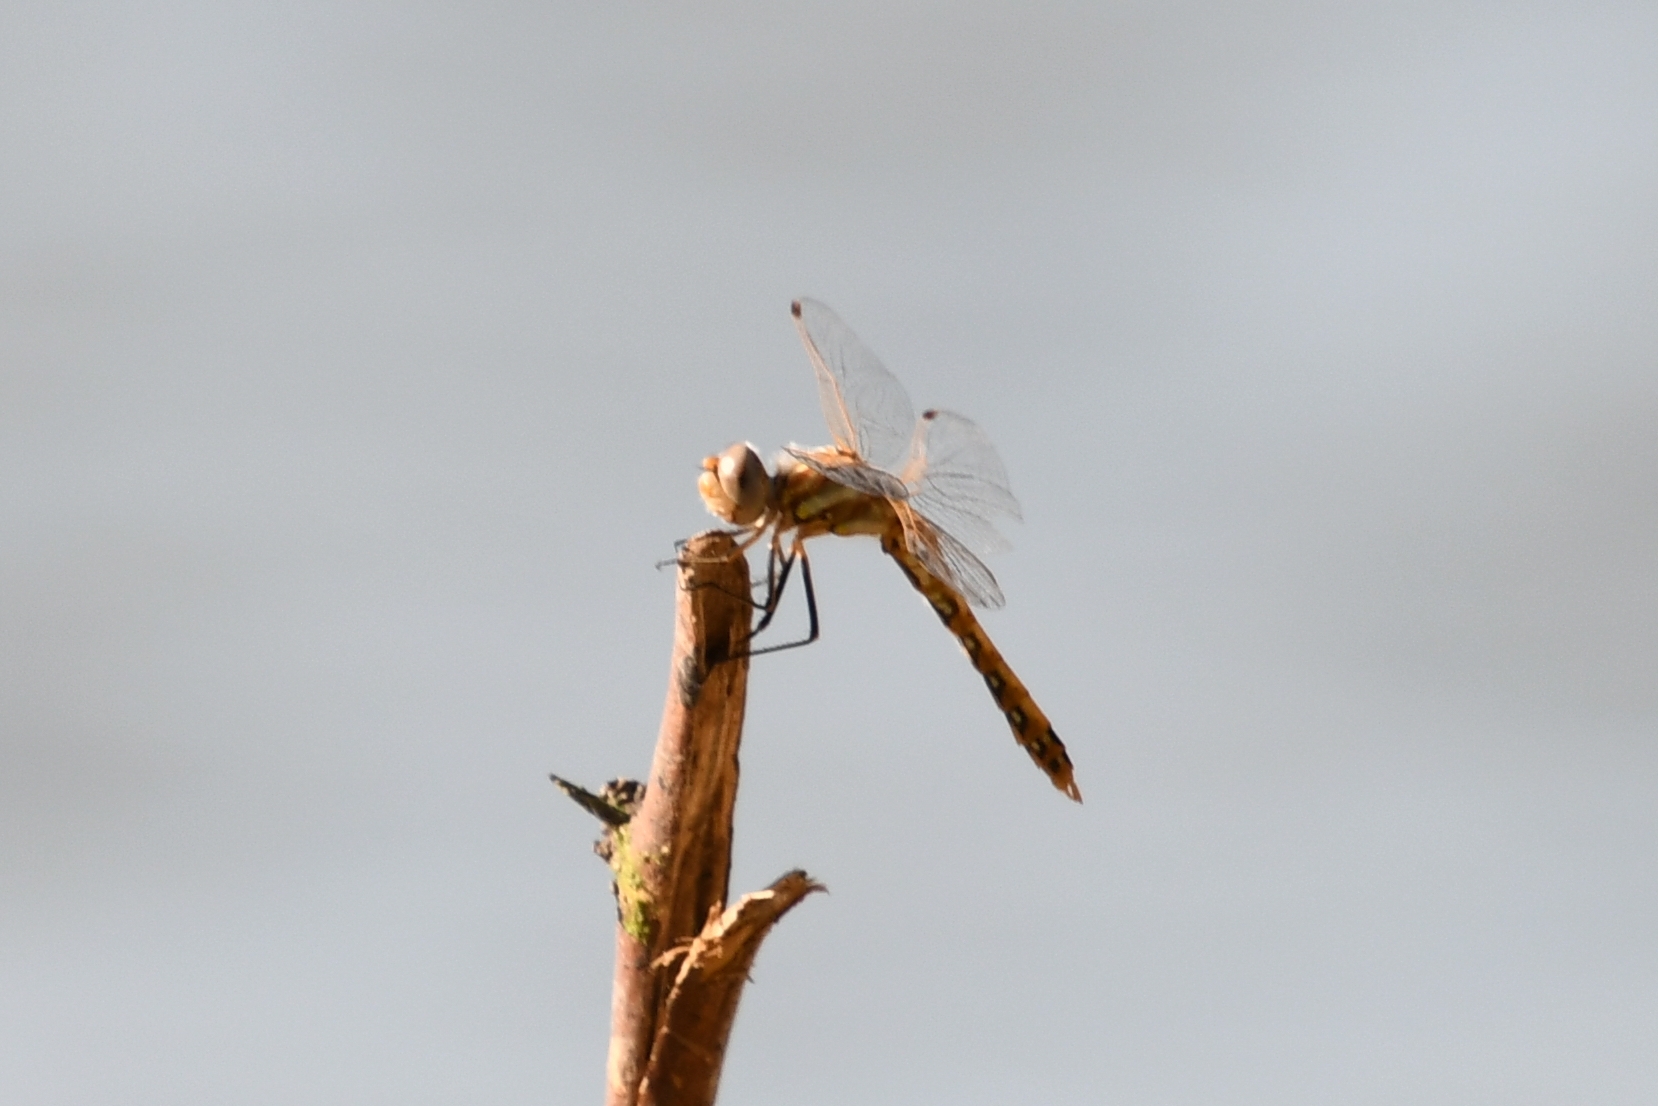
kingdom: Animalia
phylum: Arthropoda
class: Insecta
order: Odonata
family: Libellulidae
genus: Sympetrum
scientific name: Sympetrum corruptum
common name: Variegated meadowhawk
